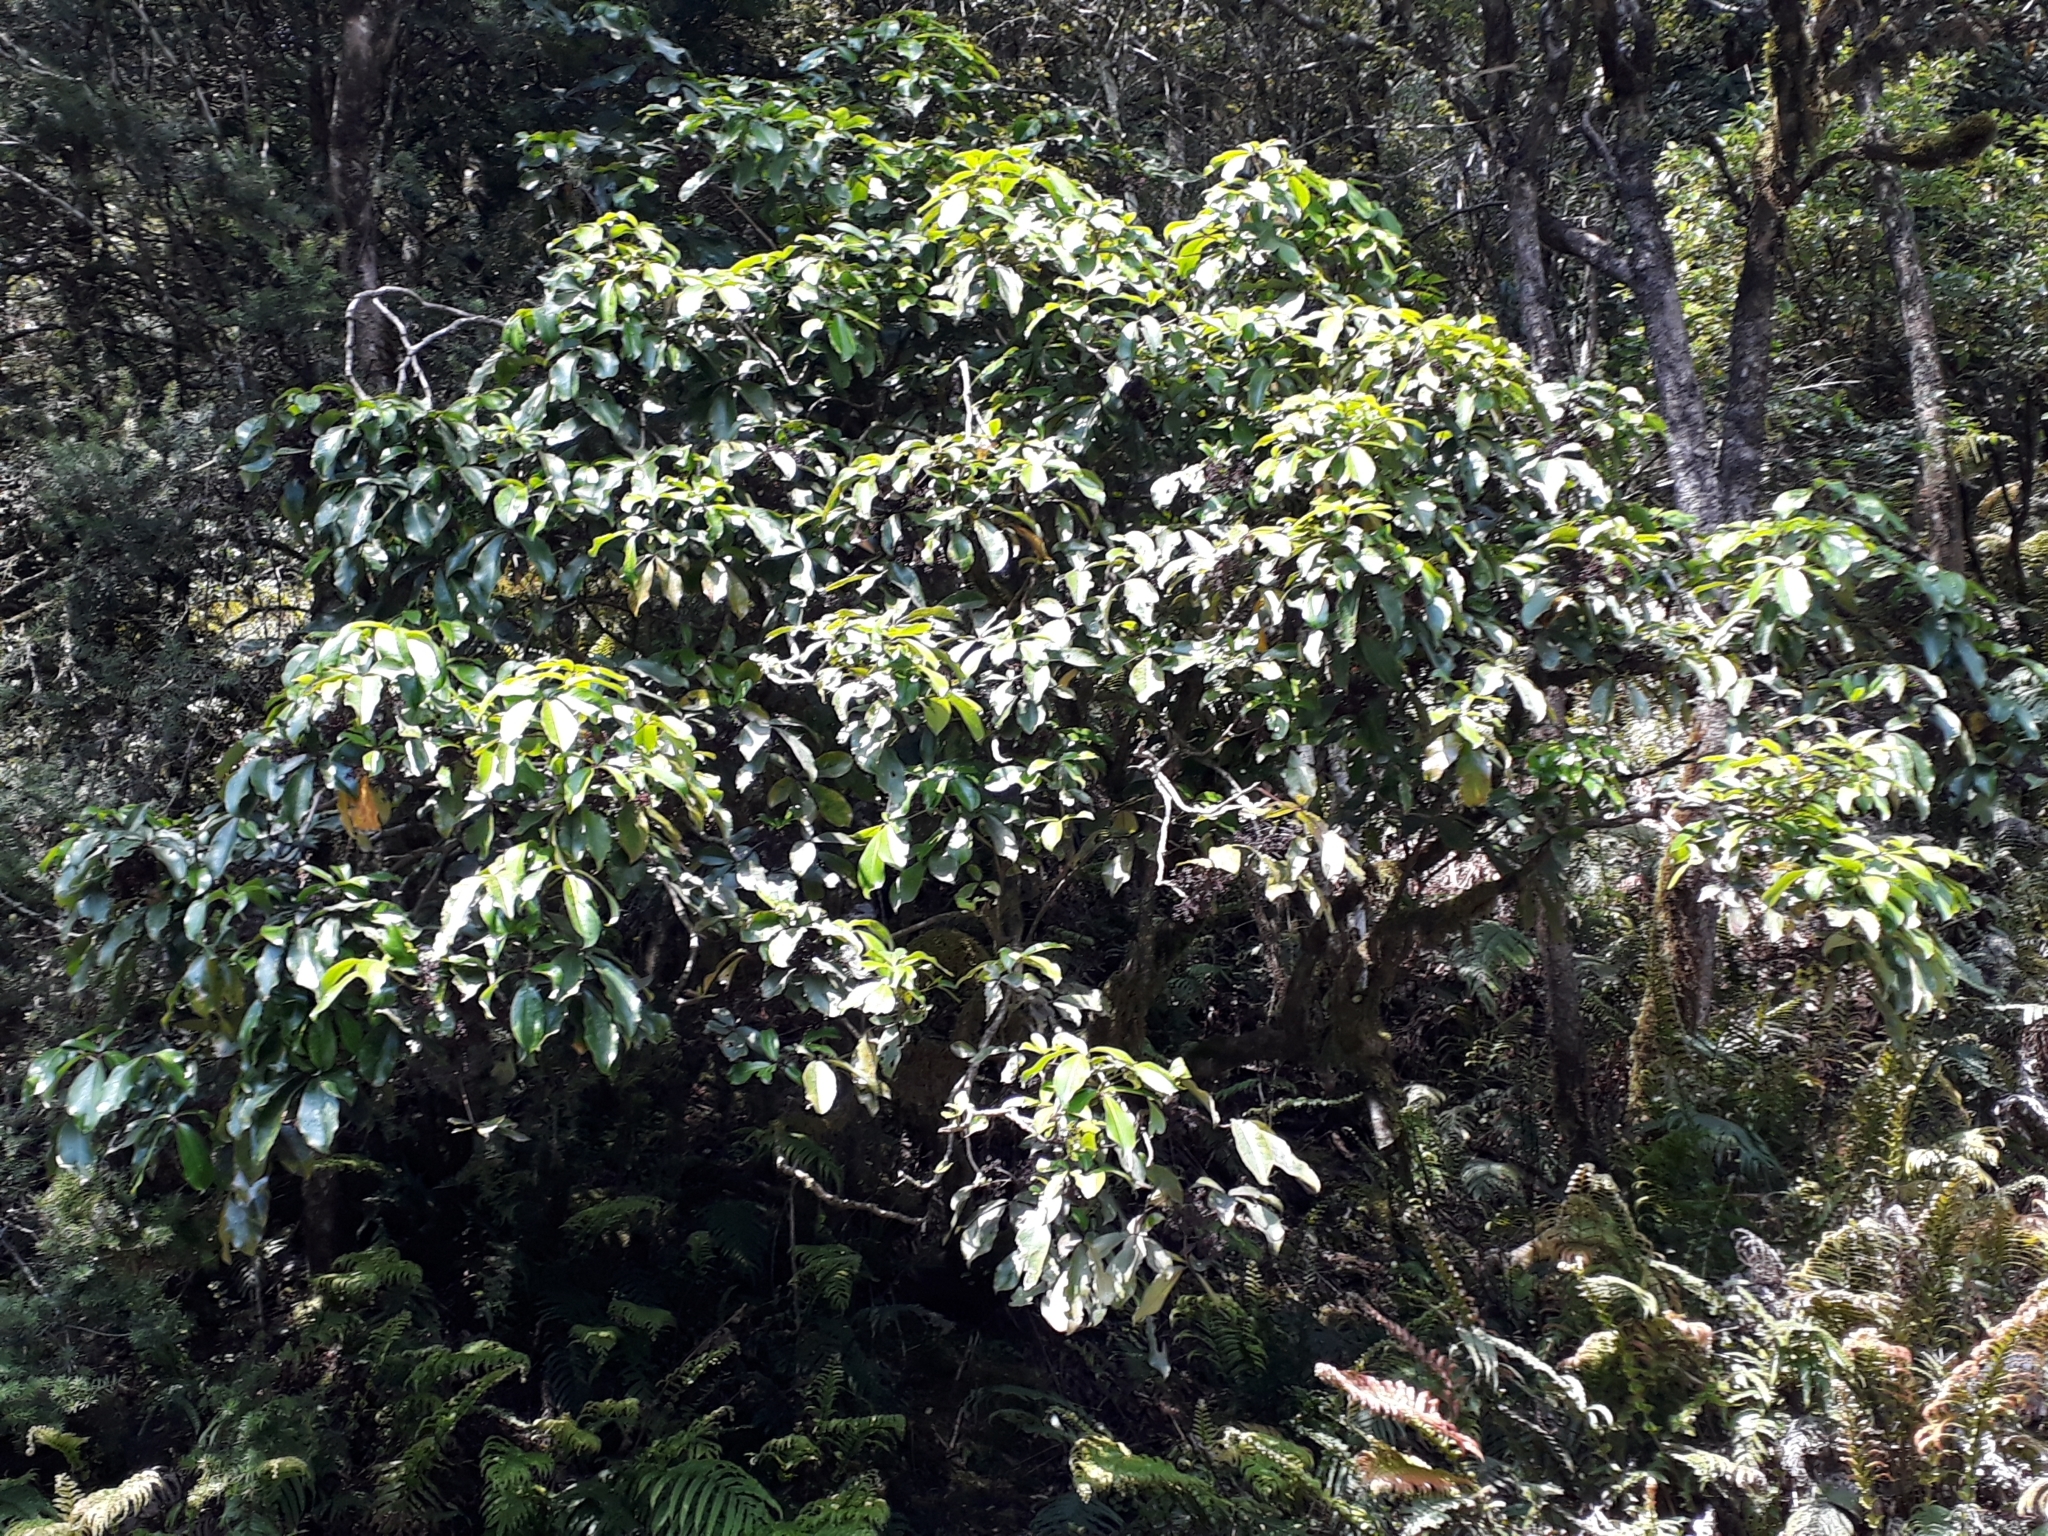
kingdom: Plantae
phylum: Tracheophyta
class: Magnoliopsida
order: Apiales
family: Araliaceae
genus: Neopanax
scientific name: Neopanax laetus
